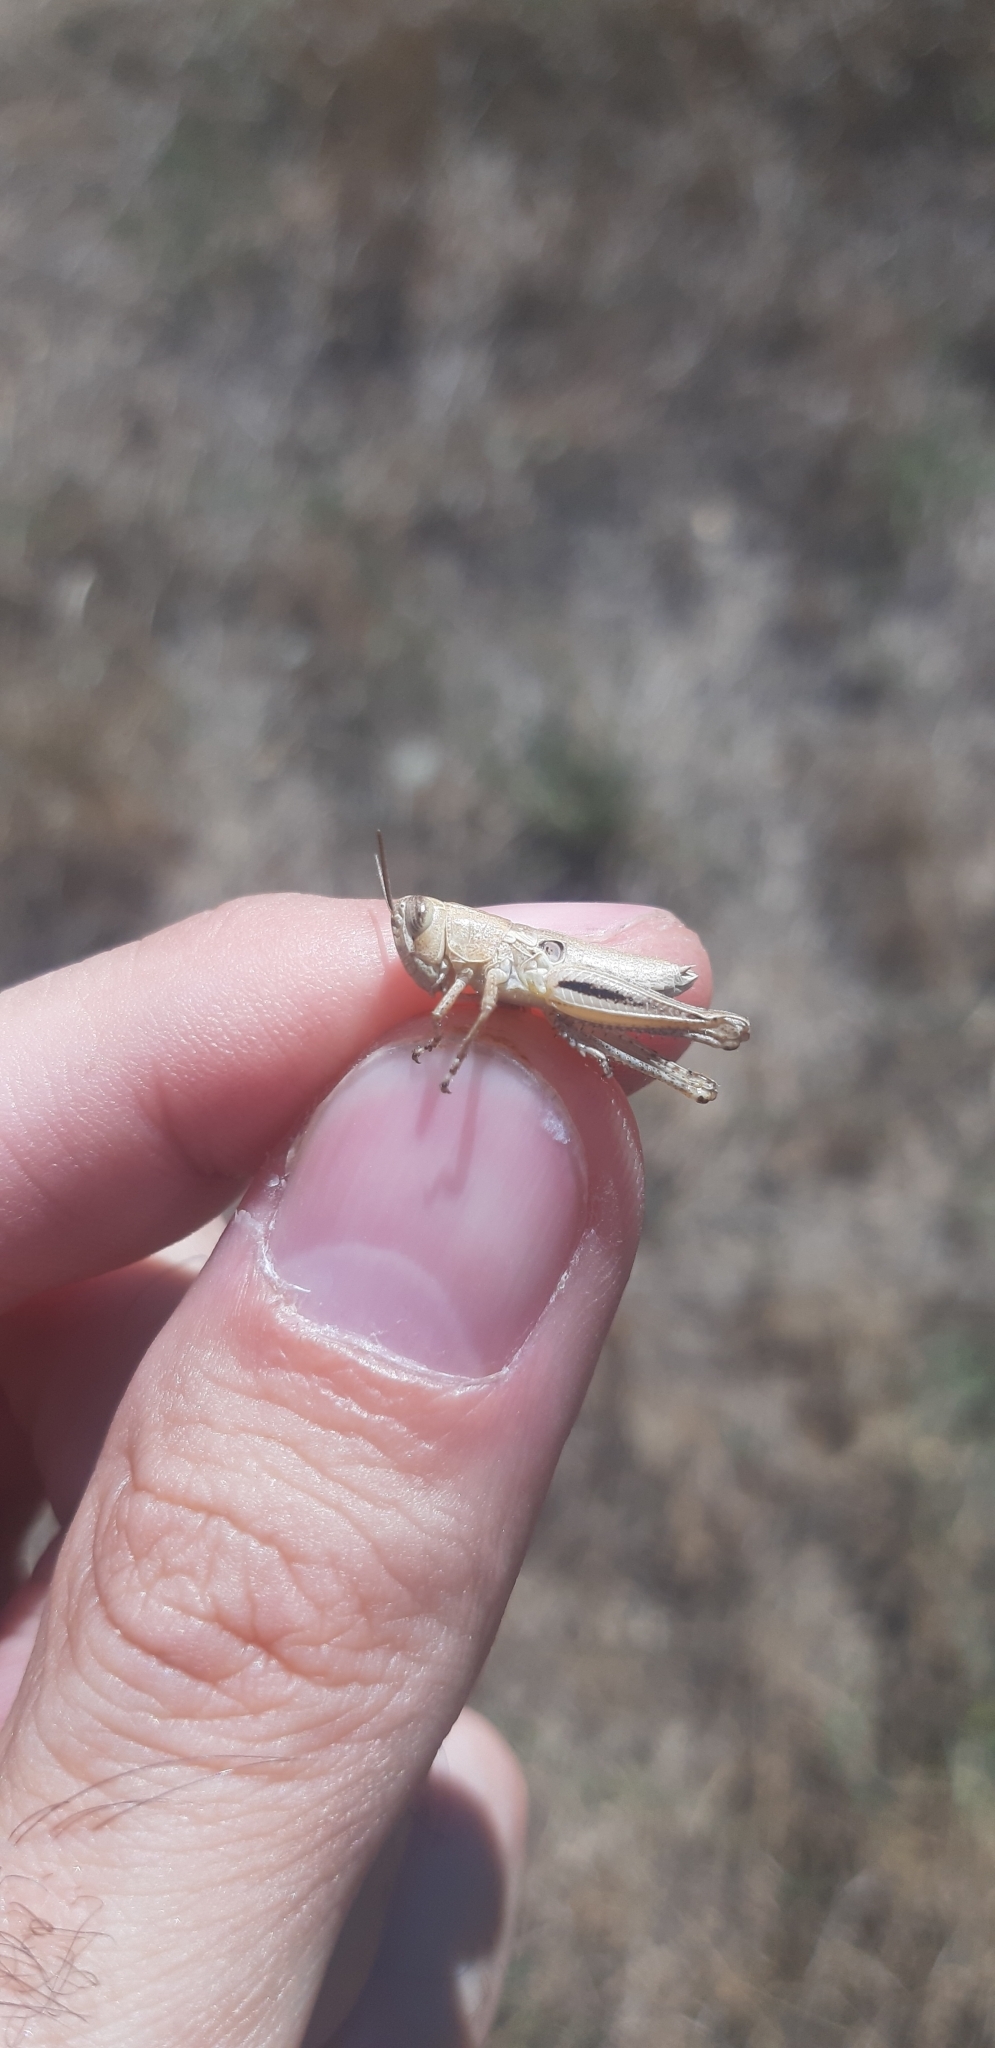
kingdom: Animalia
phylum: Arthropoda
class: Insecta
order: Orthoptera
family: Acrididae
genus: Eyprepocnemis
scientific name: Eyprepocnemis plorans
